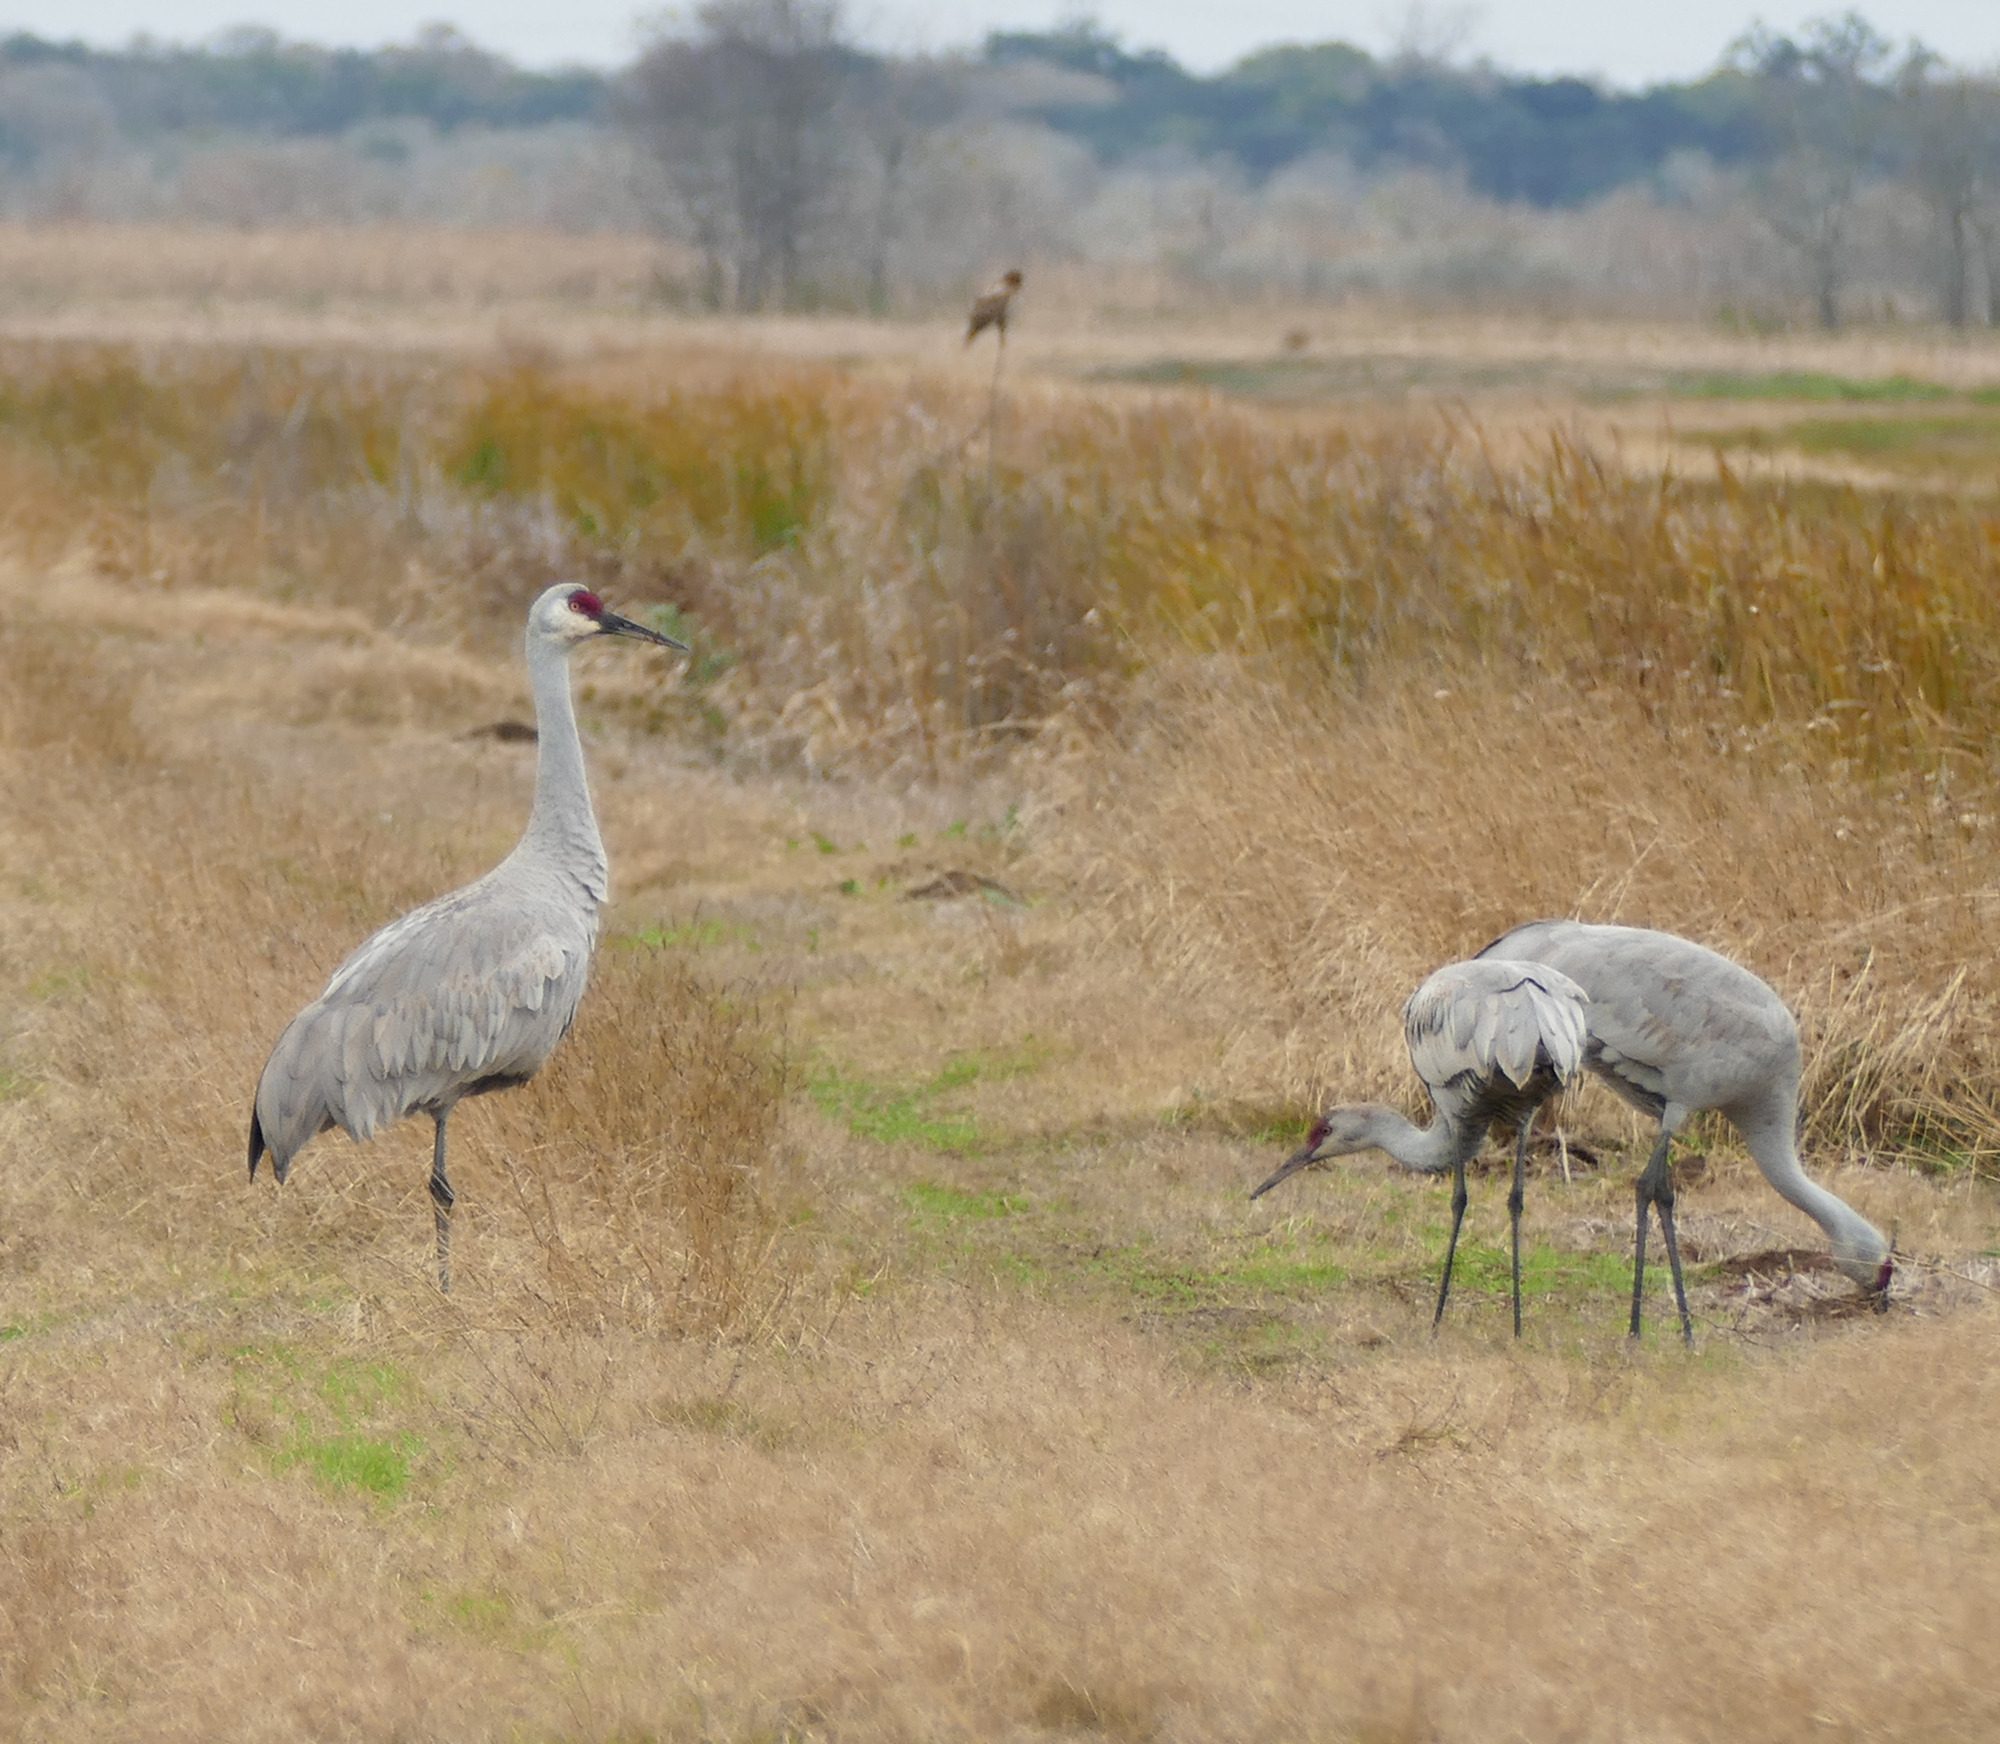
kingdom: Animalia
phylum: Chordata
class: Aves
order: Gruiformes
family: Gruidae
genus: Grus
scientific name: Grus canadensis
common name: Sandhill crane
